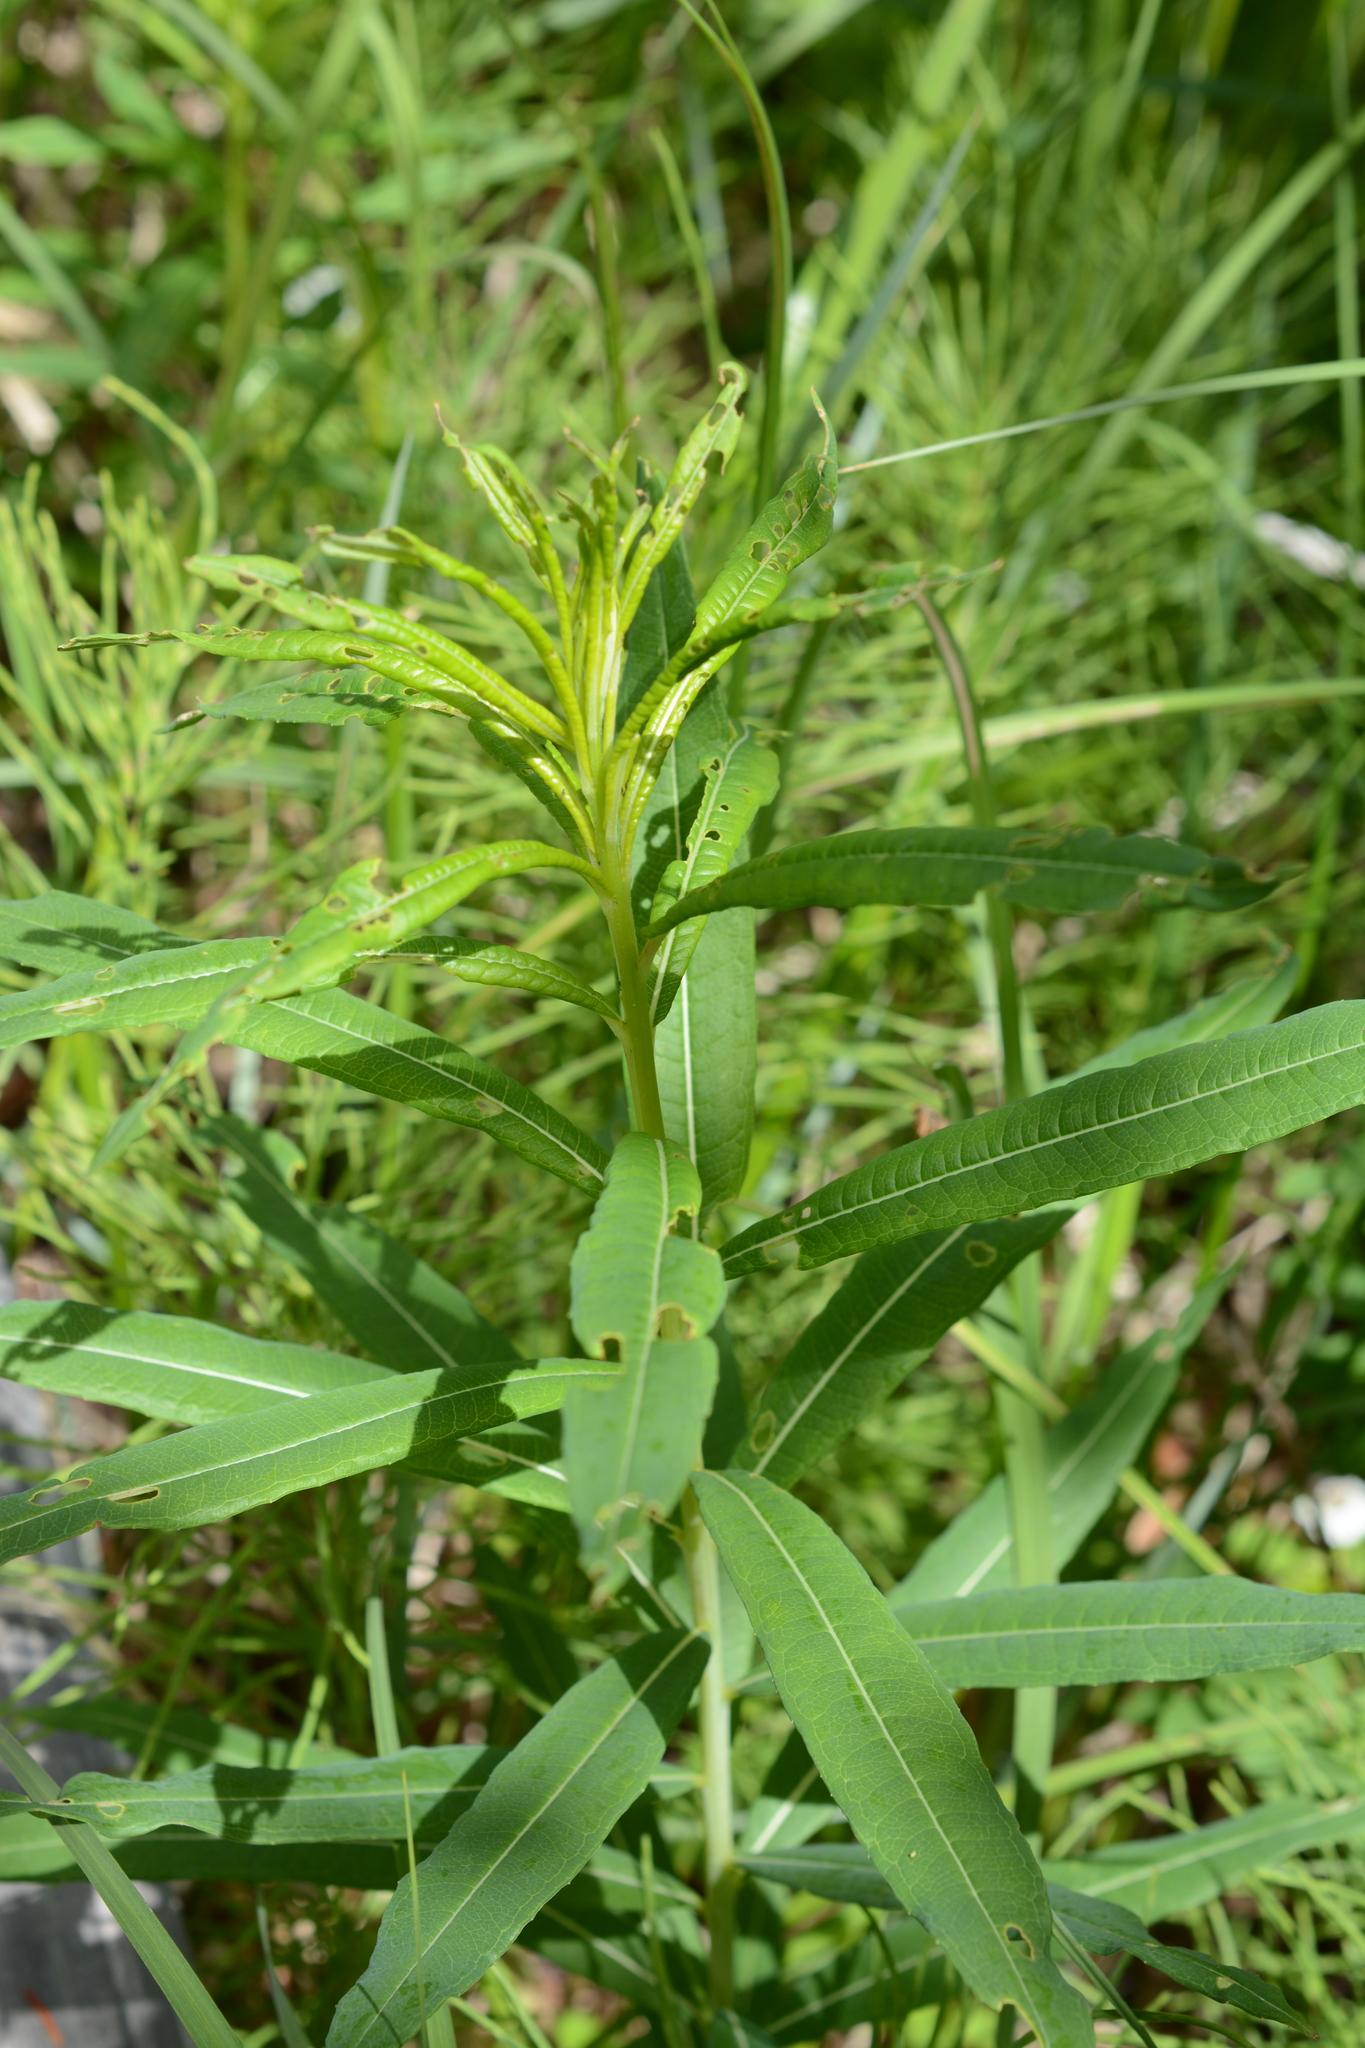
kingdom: Plantae
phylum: Tracheophyta
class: Magnoliopsida
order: Myrtales
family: Onagraceae
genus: Chamaenerion
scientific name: Chamaenerion angustifolium
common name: Fireweed
